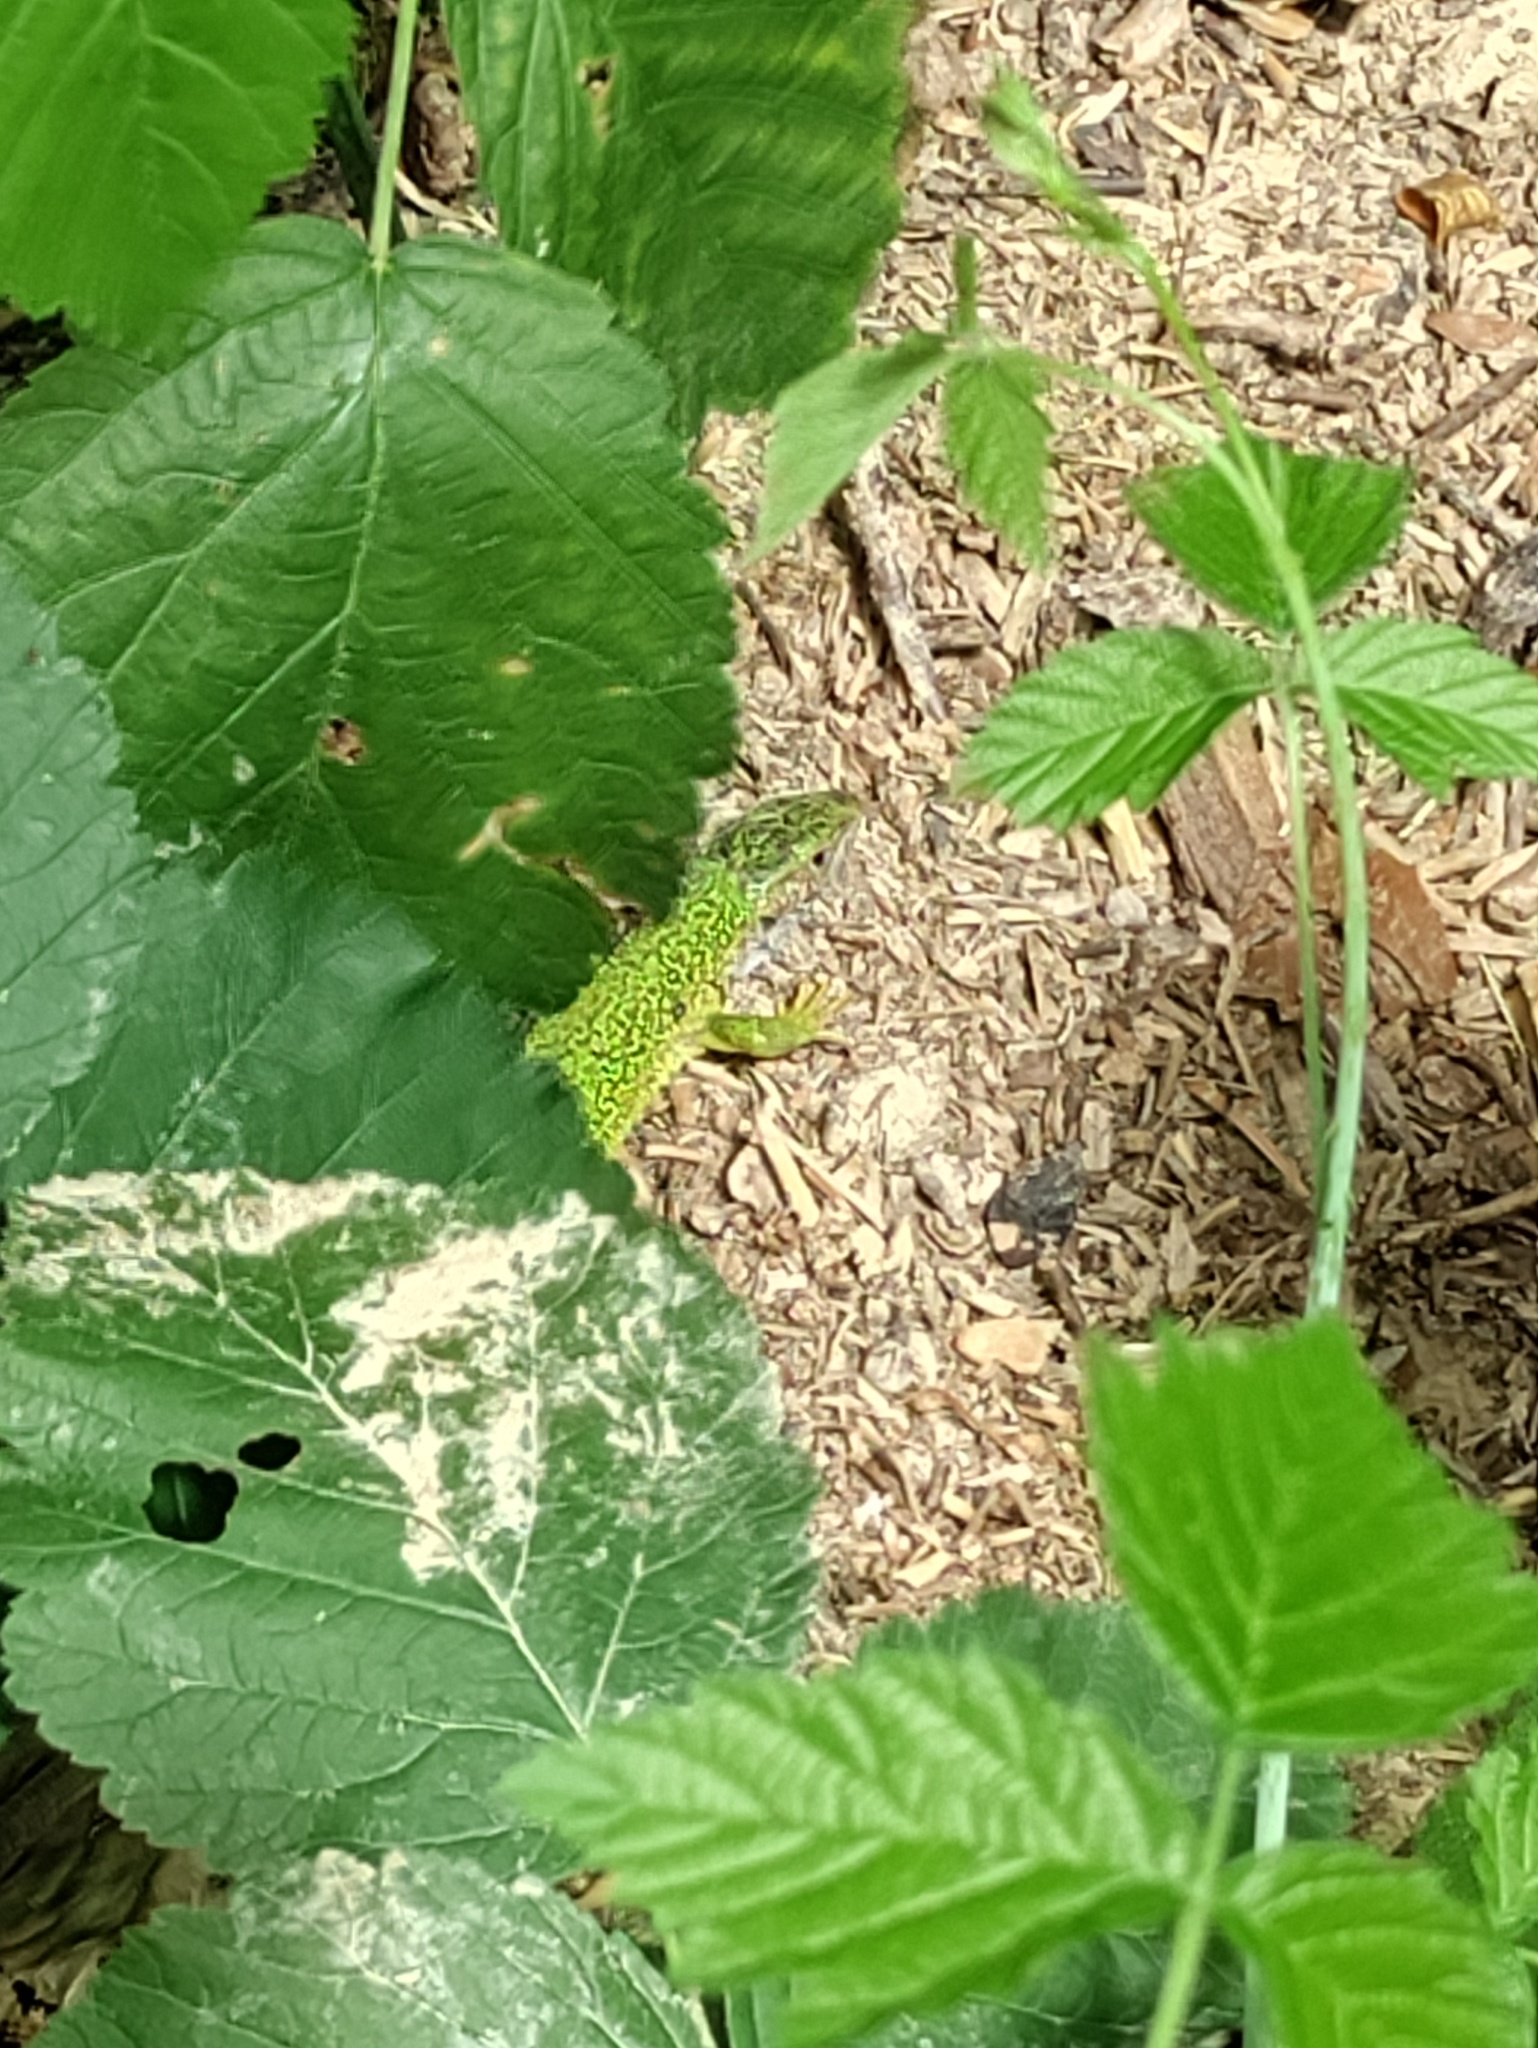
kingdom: Animalia
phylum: Chordata
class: Squamata
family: Lacertidae
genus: Lacerta
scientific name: Lacerta viridis
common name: European green lizard
